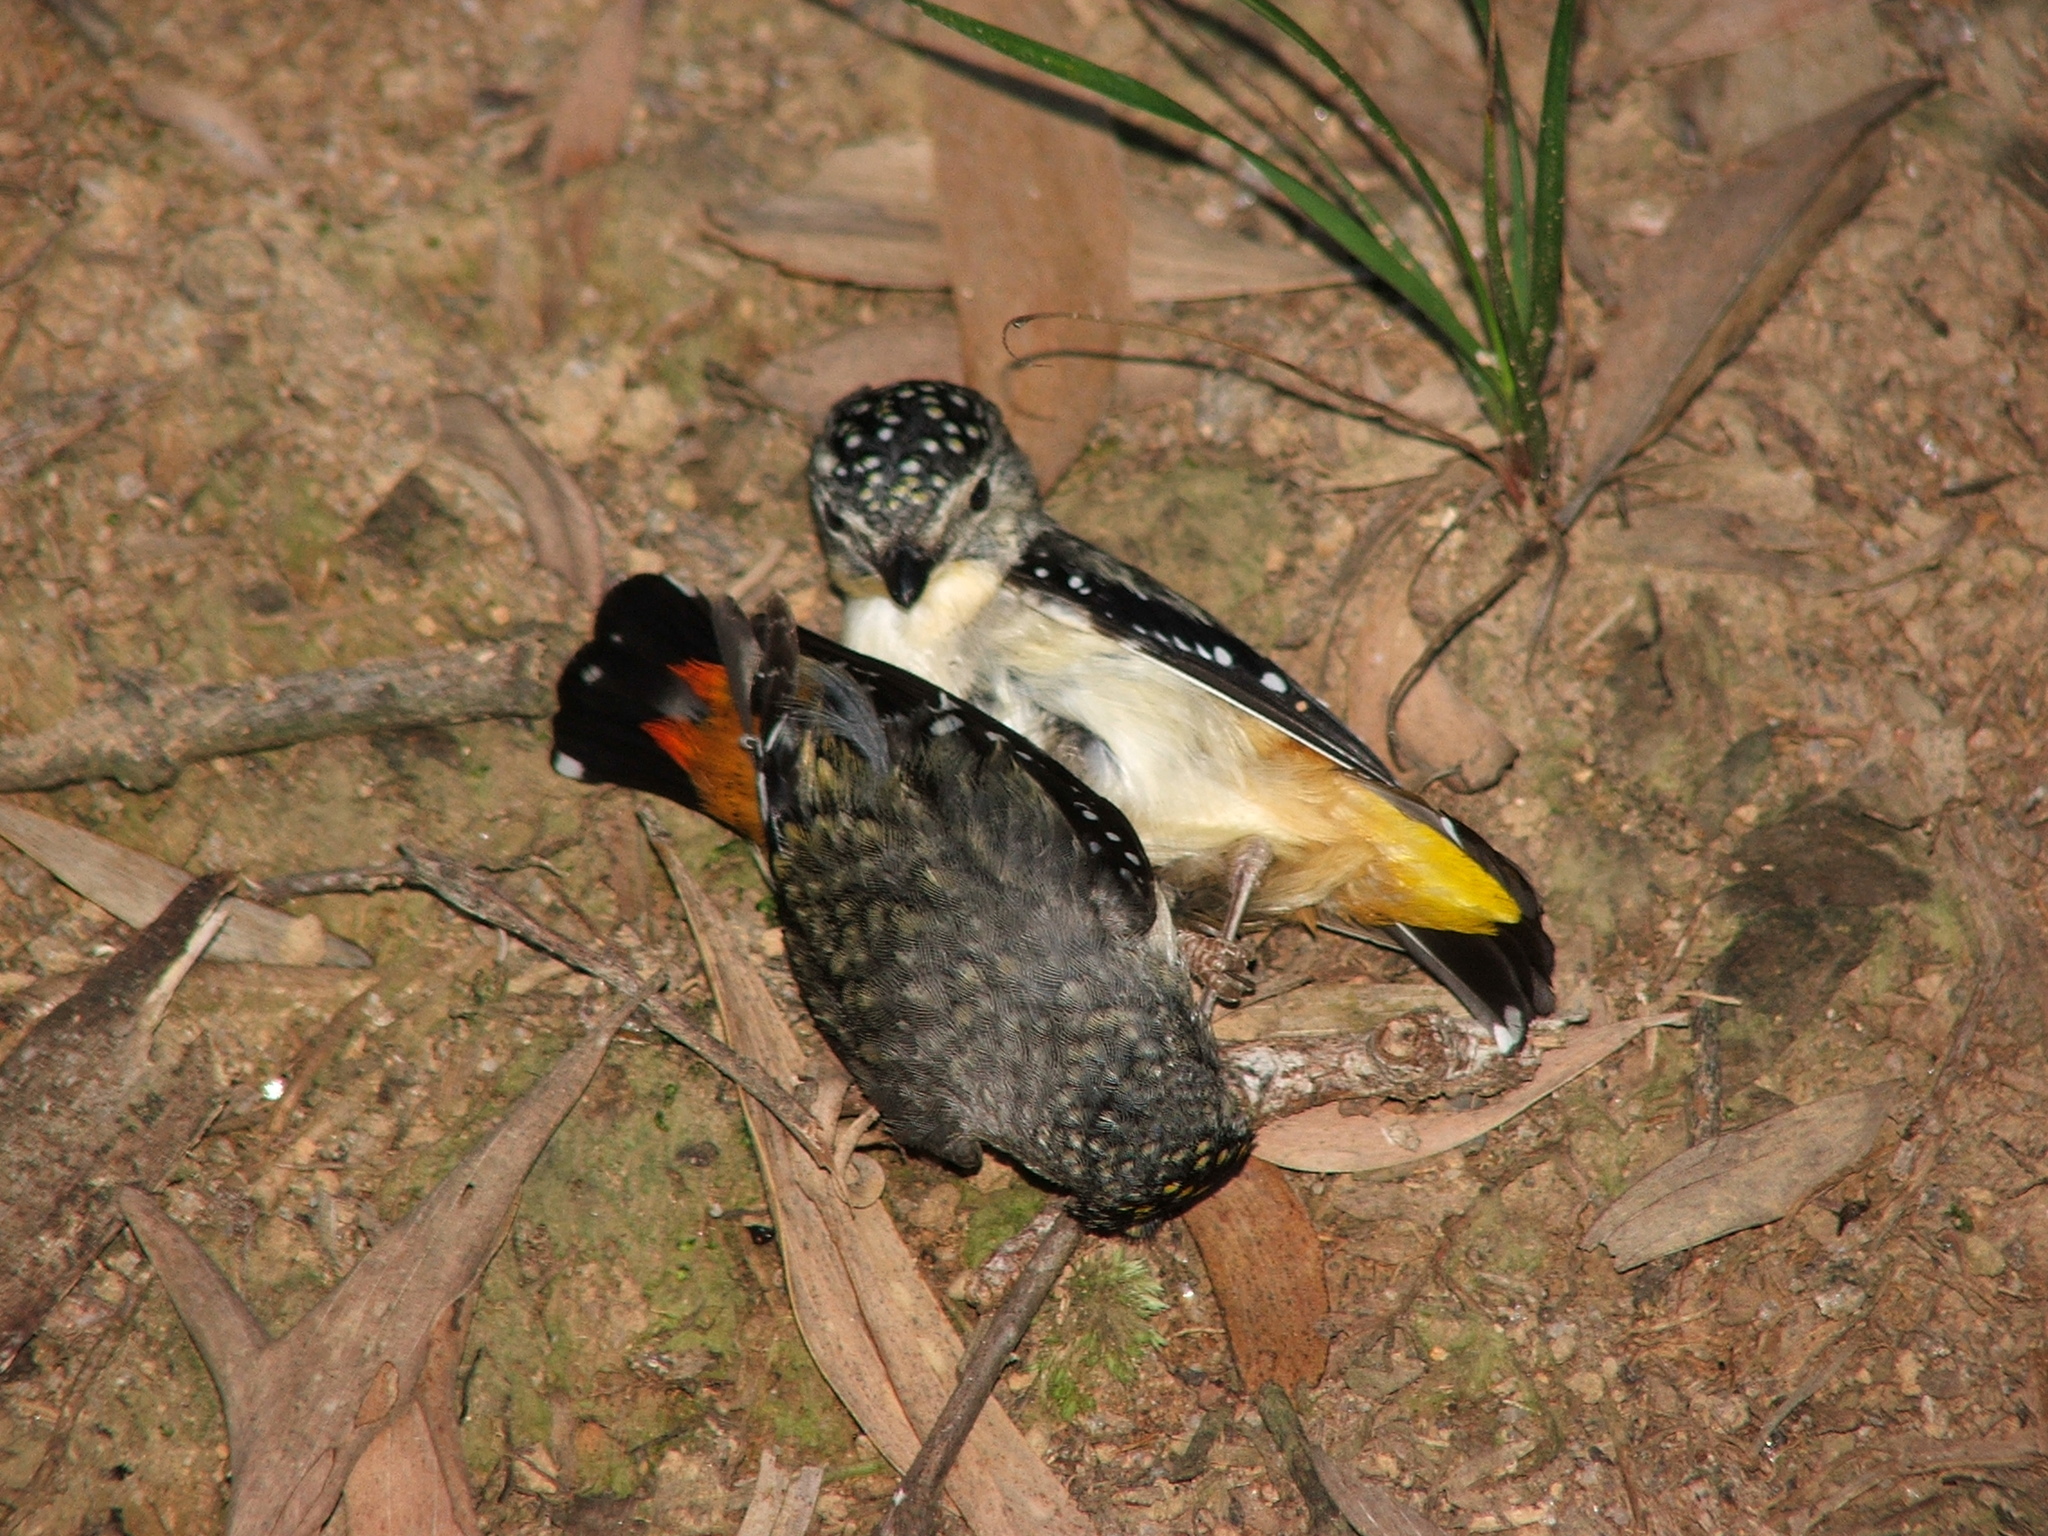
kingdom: Animalia
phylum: Chordata
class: Aves
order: Passeriformes
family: Pardalotidae
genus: Pardalotus
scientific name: Pardalotus punctatus
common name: Spotted pardalote
